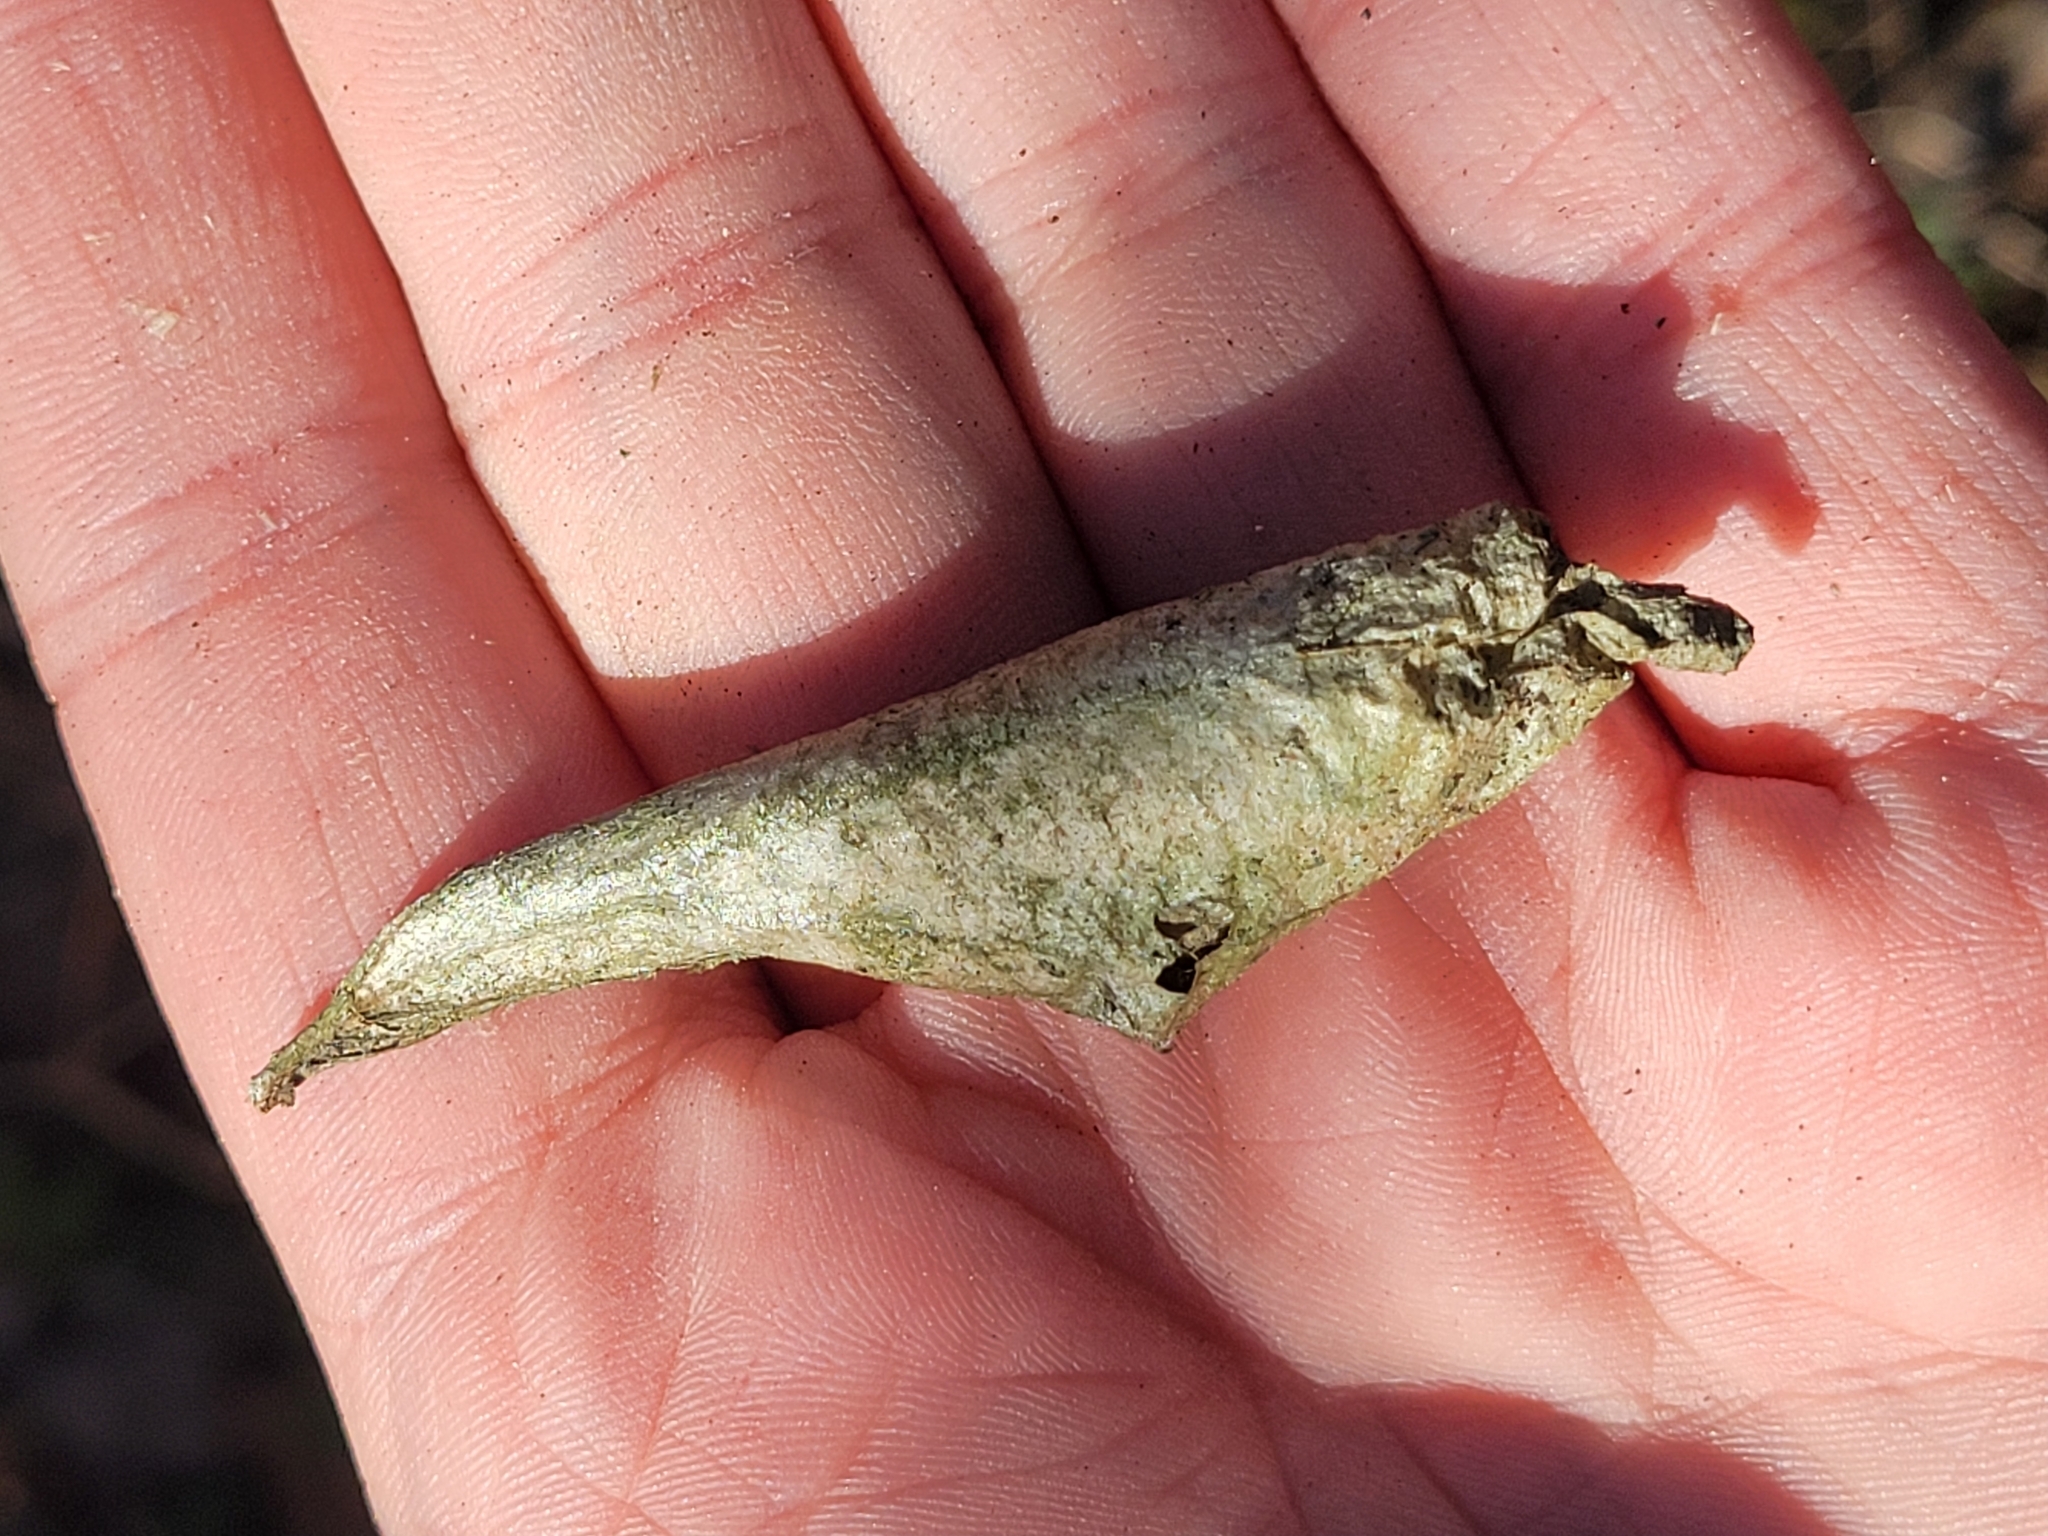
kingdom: Animalia
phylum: Arthropoda
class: Insecta
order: Lepidoptera
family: Saturniidae
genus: Callosamia
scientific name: Callosamia promethea
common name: Promethea silkmoth
